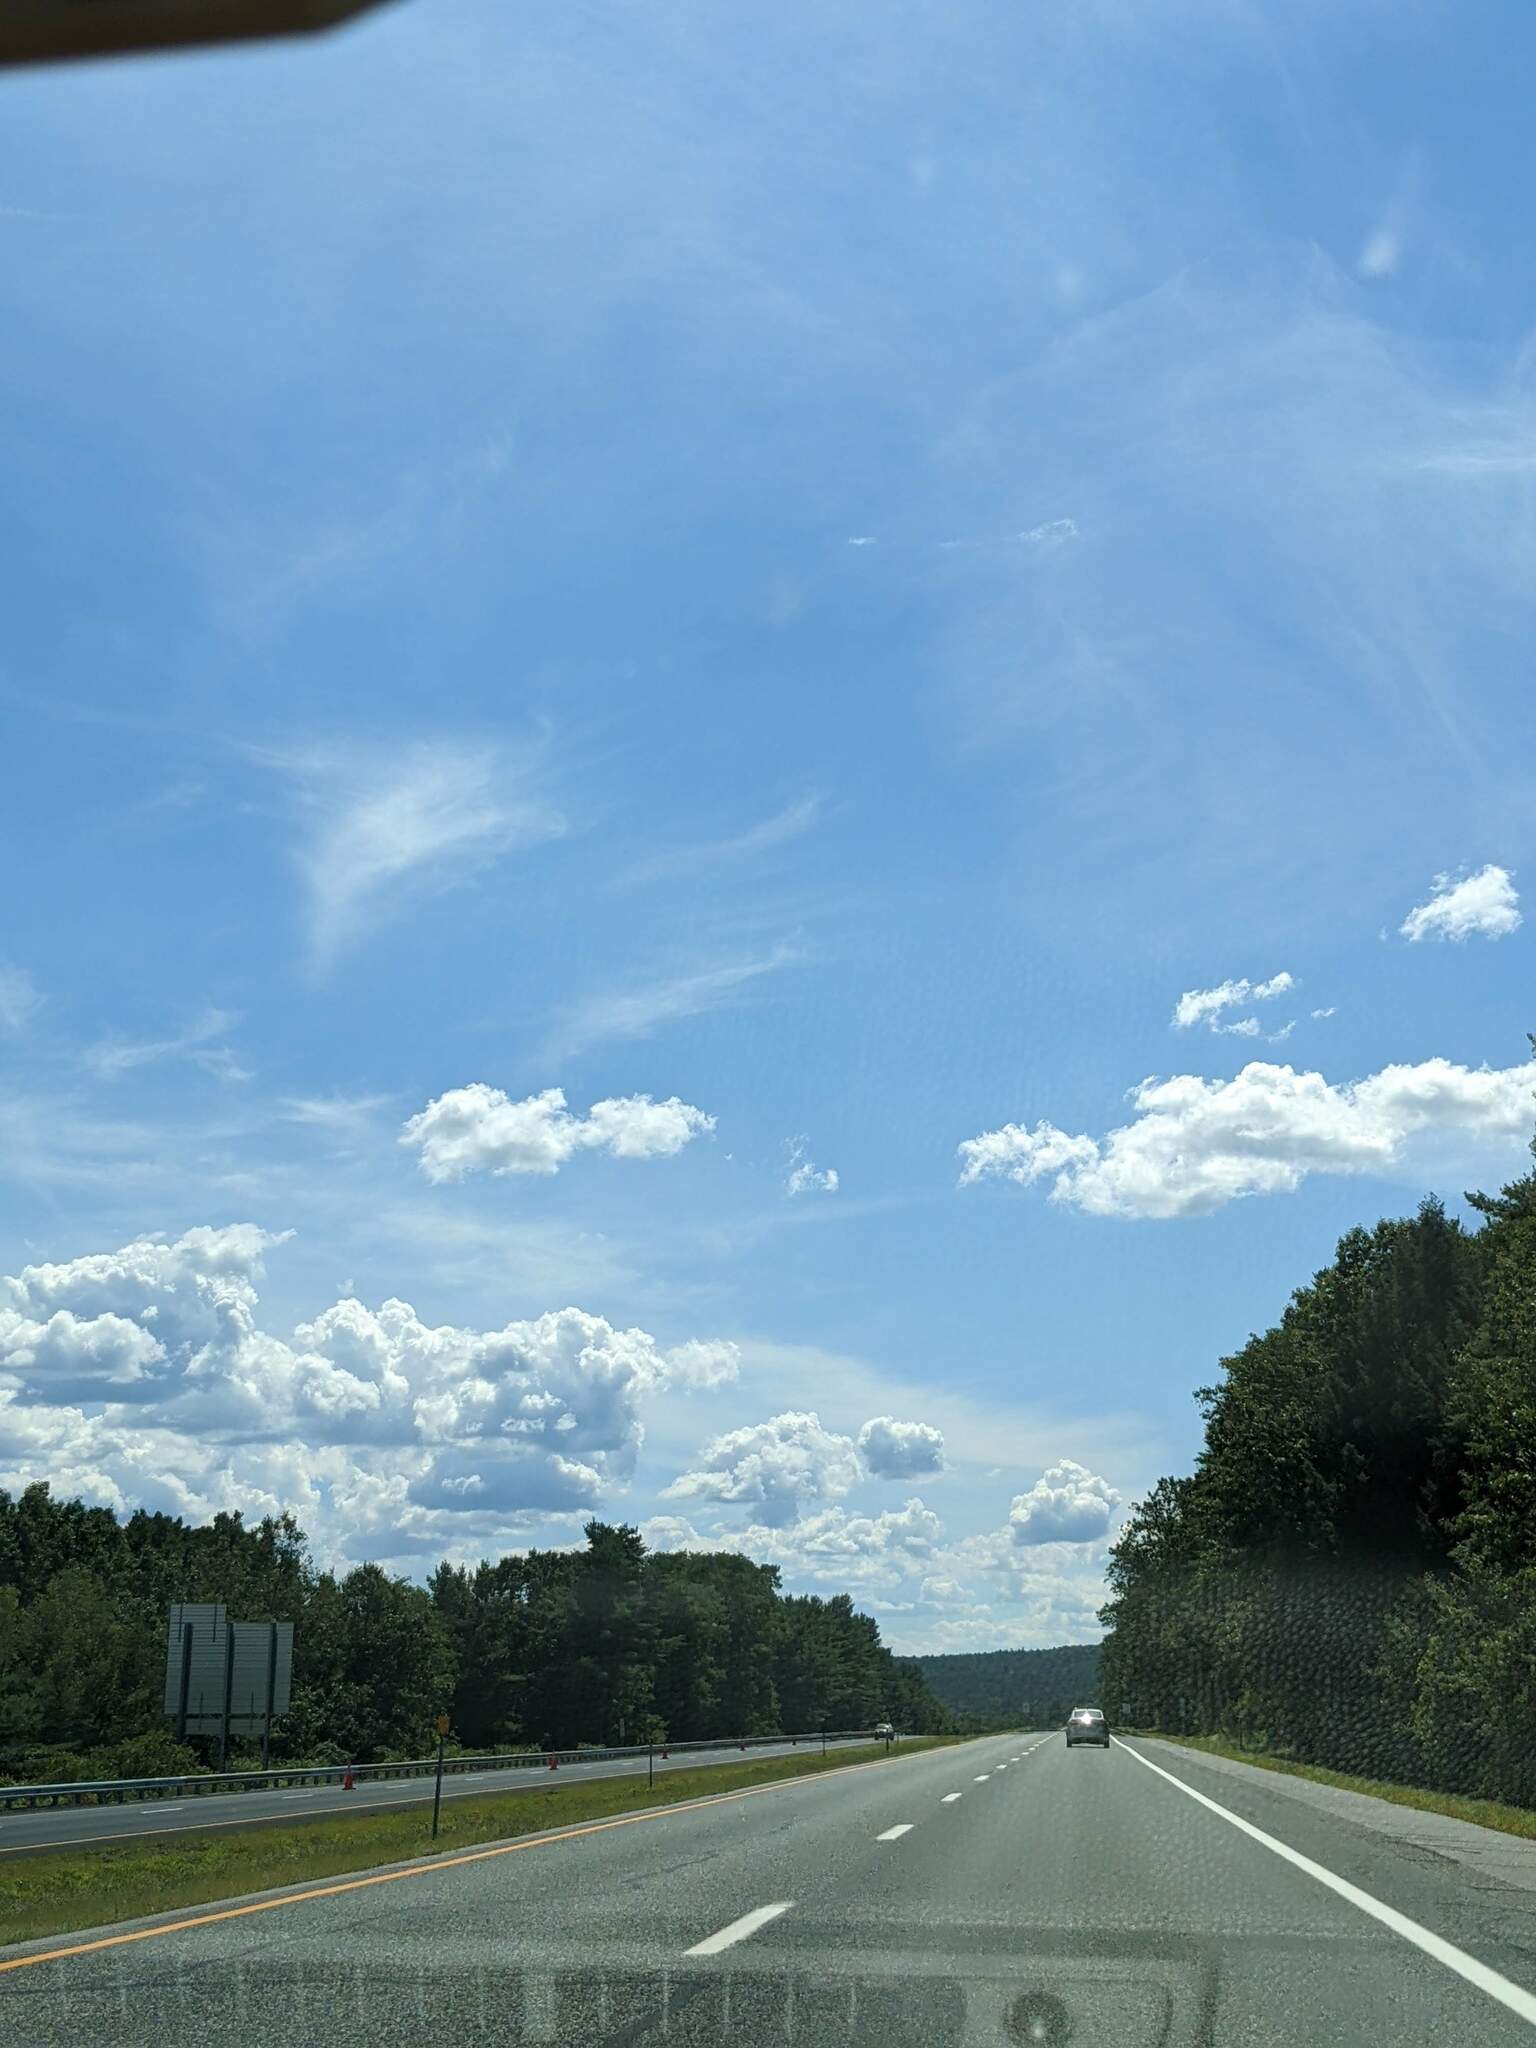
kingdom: Plantae
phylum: Tracheophyta
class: Pinopsida
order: Pinales
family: Pinaceae
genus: Pinus
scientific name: Pinus strobus
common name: Weymouth pine
